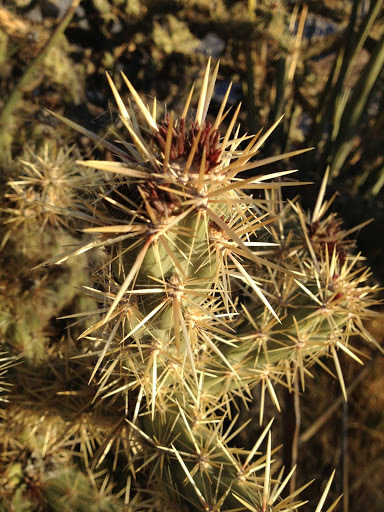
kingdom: Plantae
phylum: Tracheophyta
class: Magnoliopsida
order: Caryophyllales
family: Cactaceae
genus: Cylindropuntia
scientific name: Cylindropuntia acanthocarpa
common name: Buckhorn cholla
